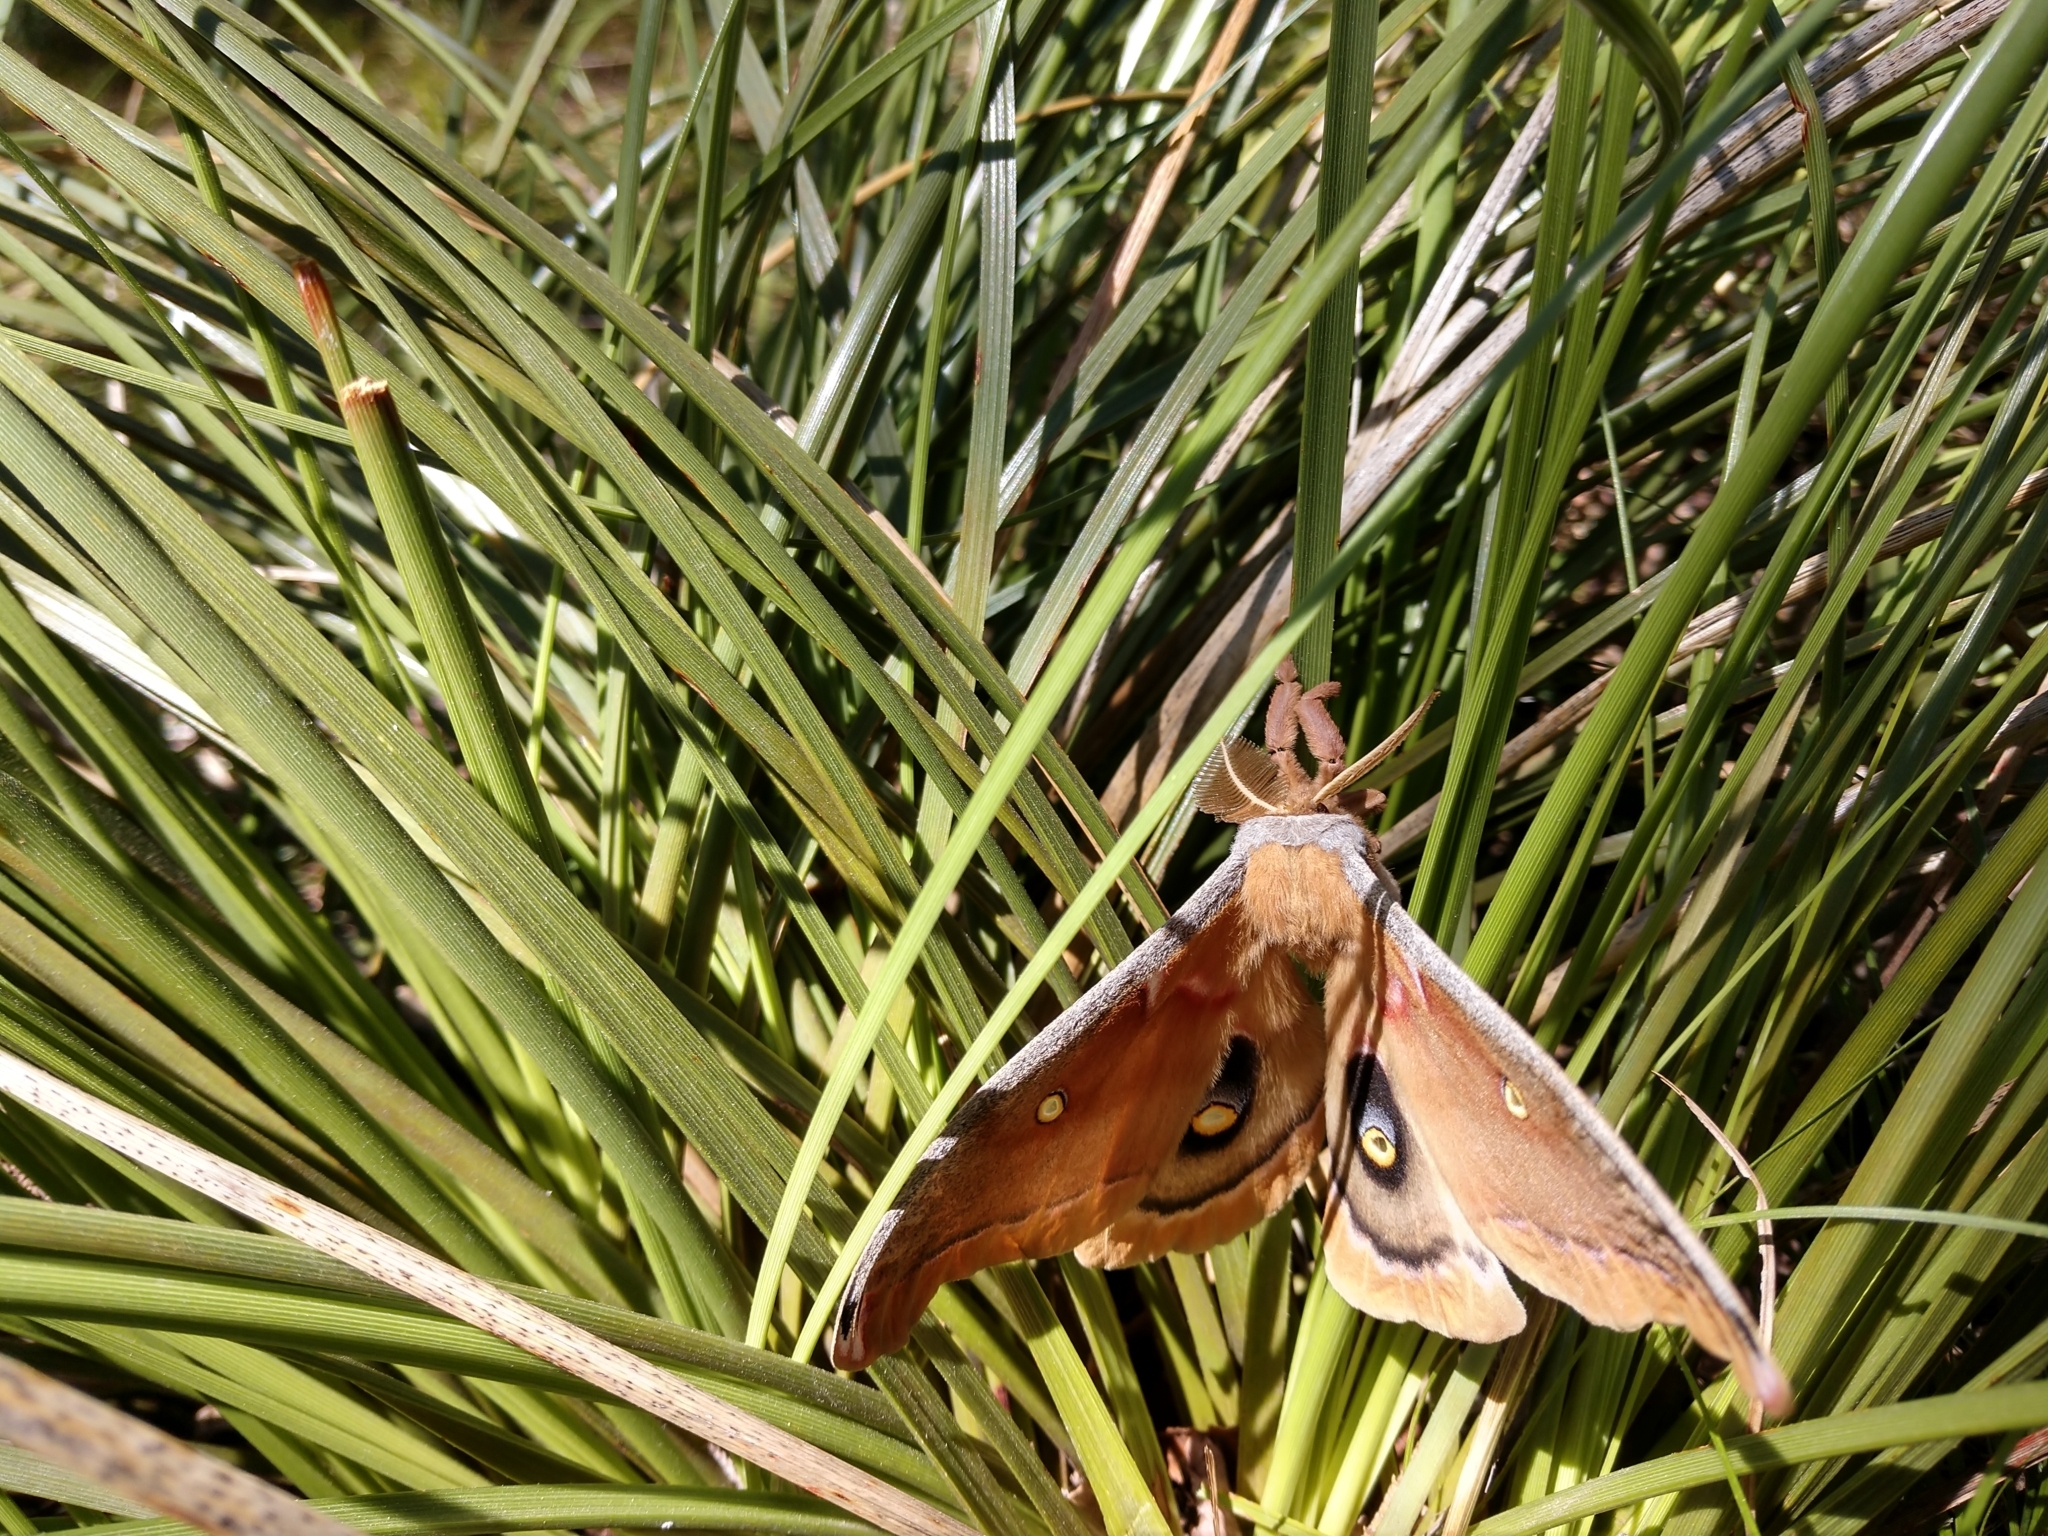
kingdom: Animalia
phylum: Arthropoda
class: Insecta
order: Lepidoptera
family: Saturniidae
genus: Antheraea
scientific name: Antheraea polyphemus
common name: Polyphemus moth
